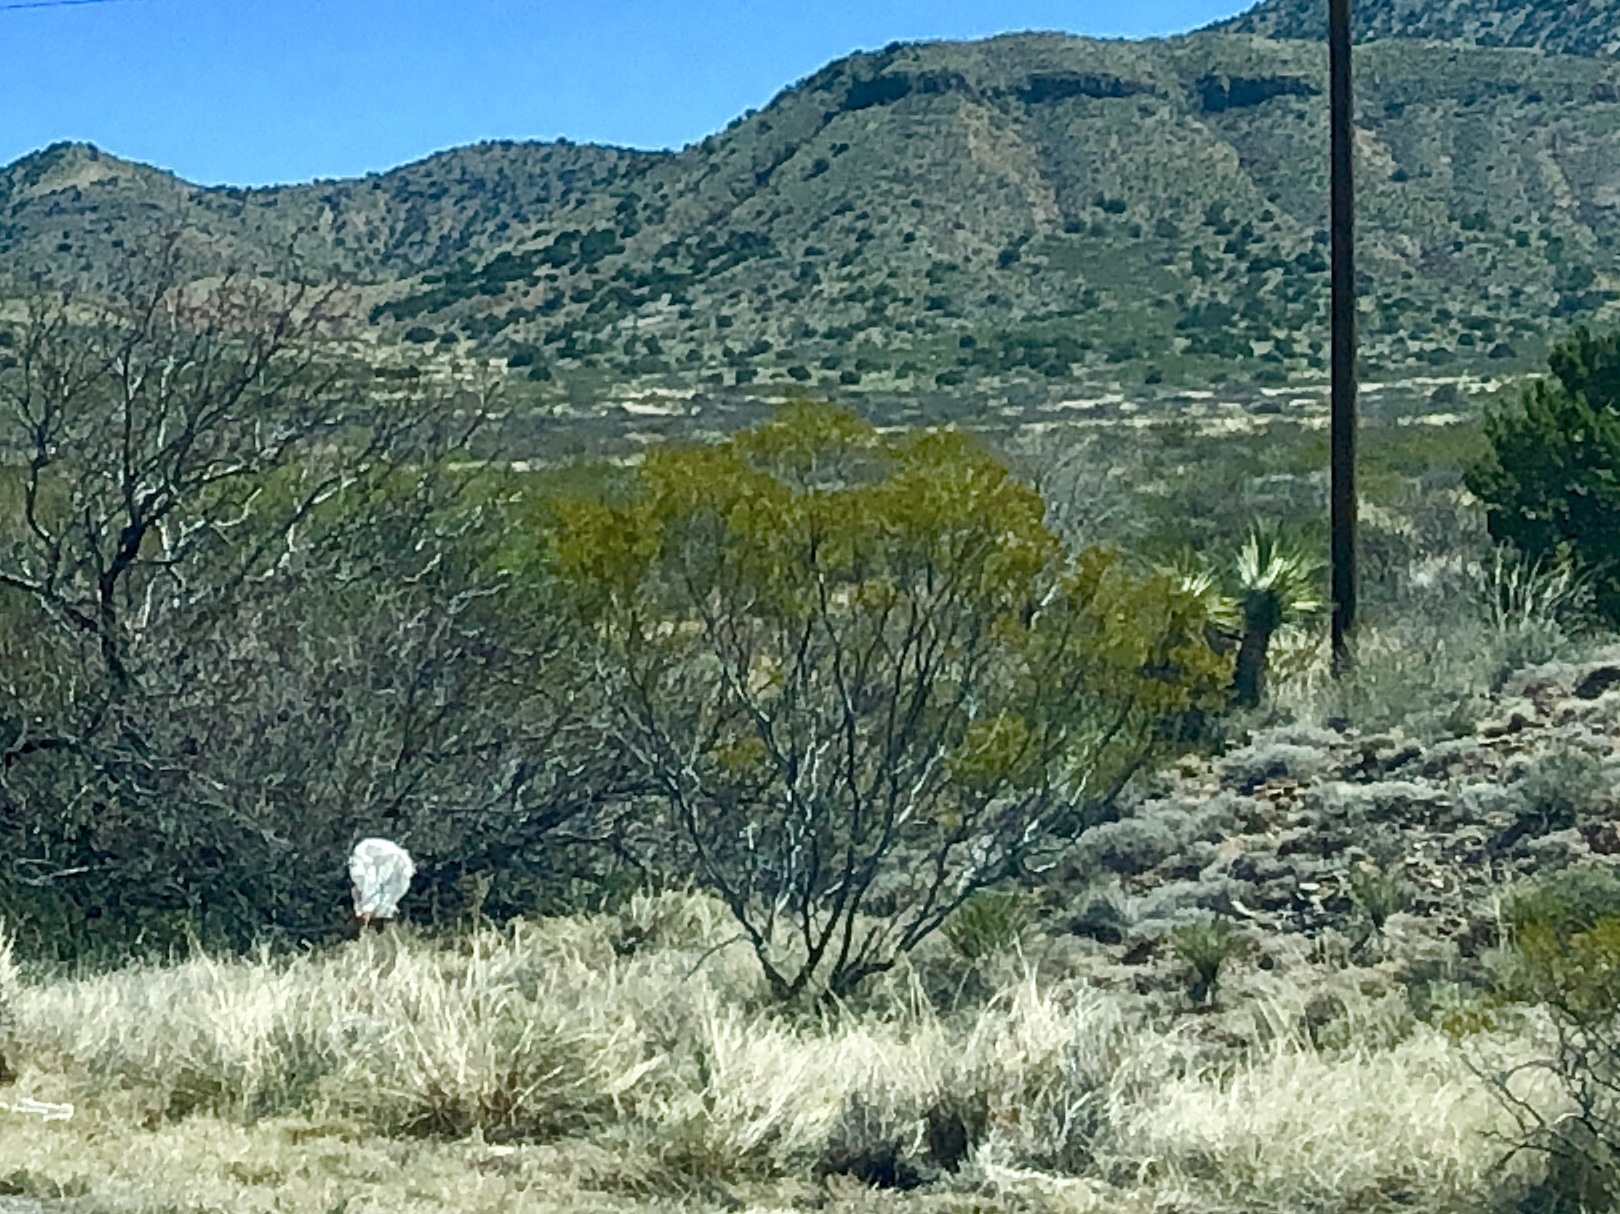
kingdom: Plantae
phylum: Tracheophyta
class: Magnoliopsida
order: Zygophyllales
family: Zygophyllaceae
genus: Larrea
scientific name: Larrea tridentata
